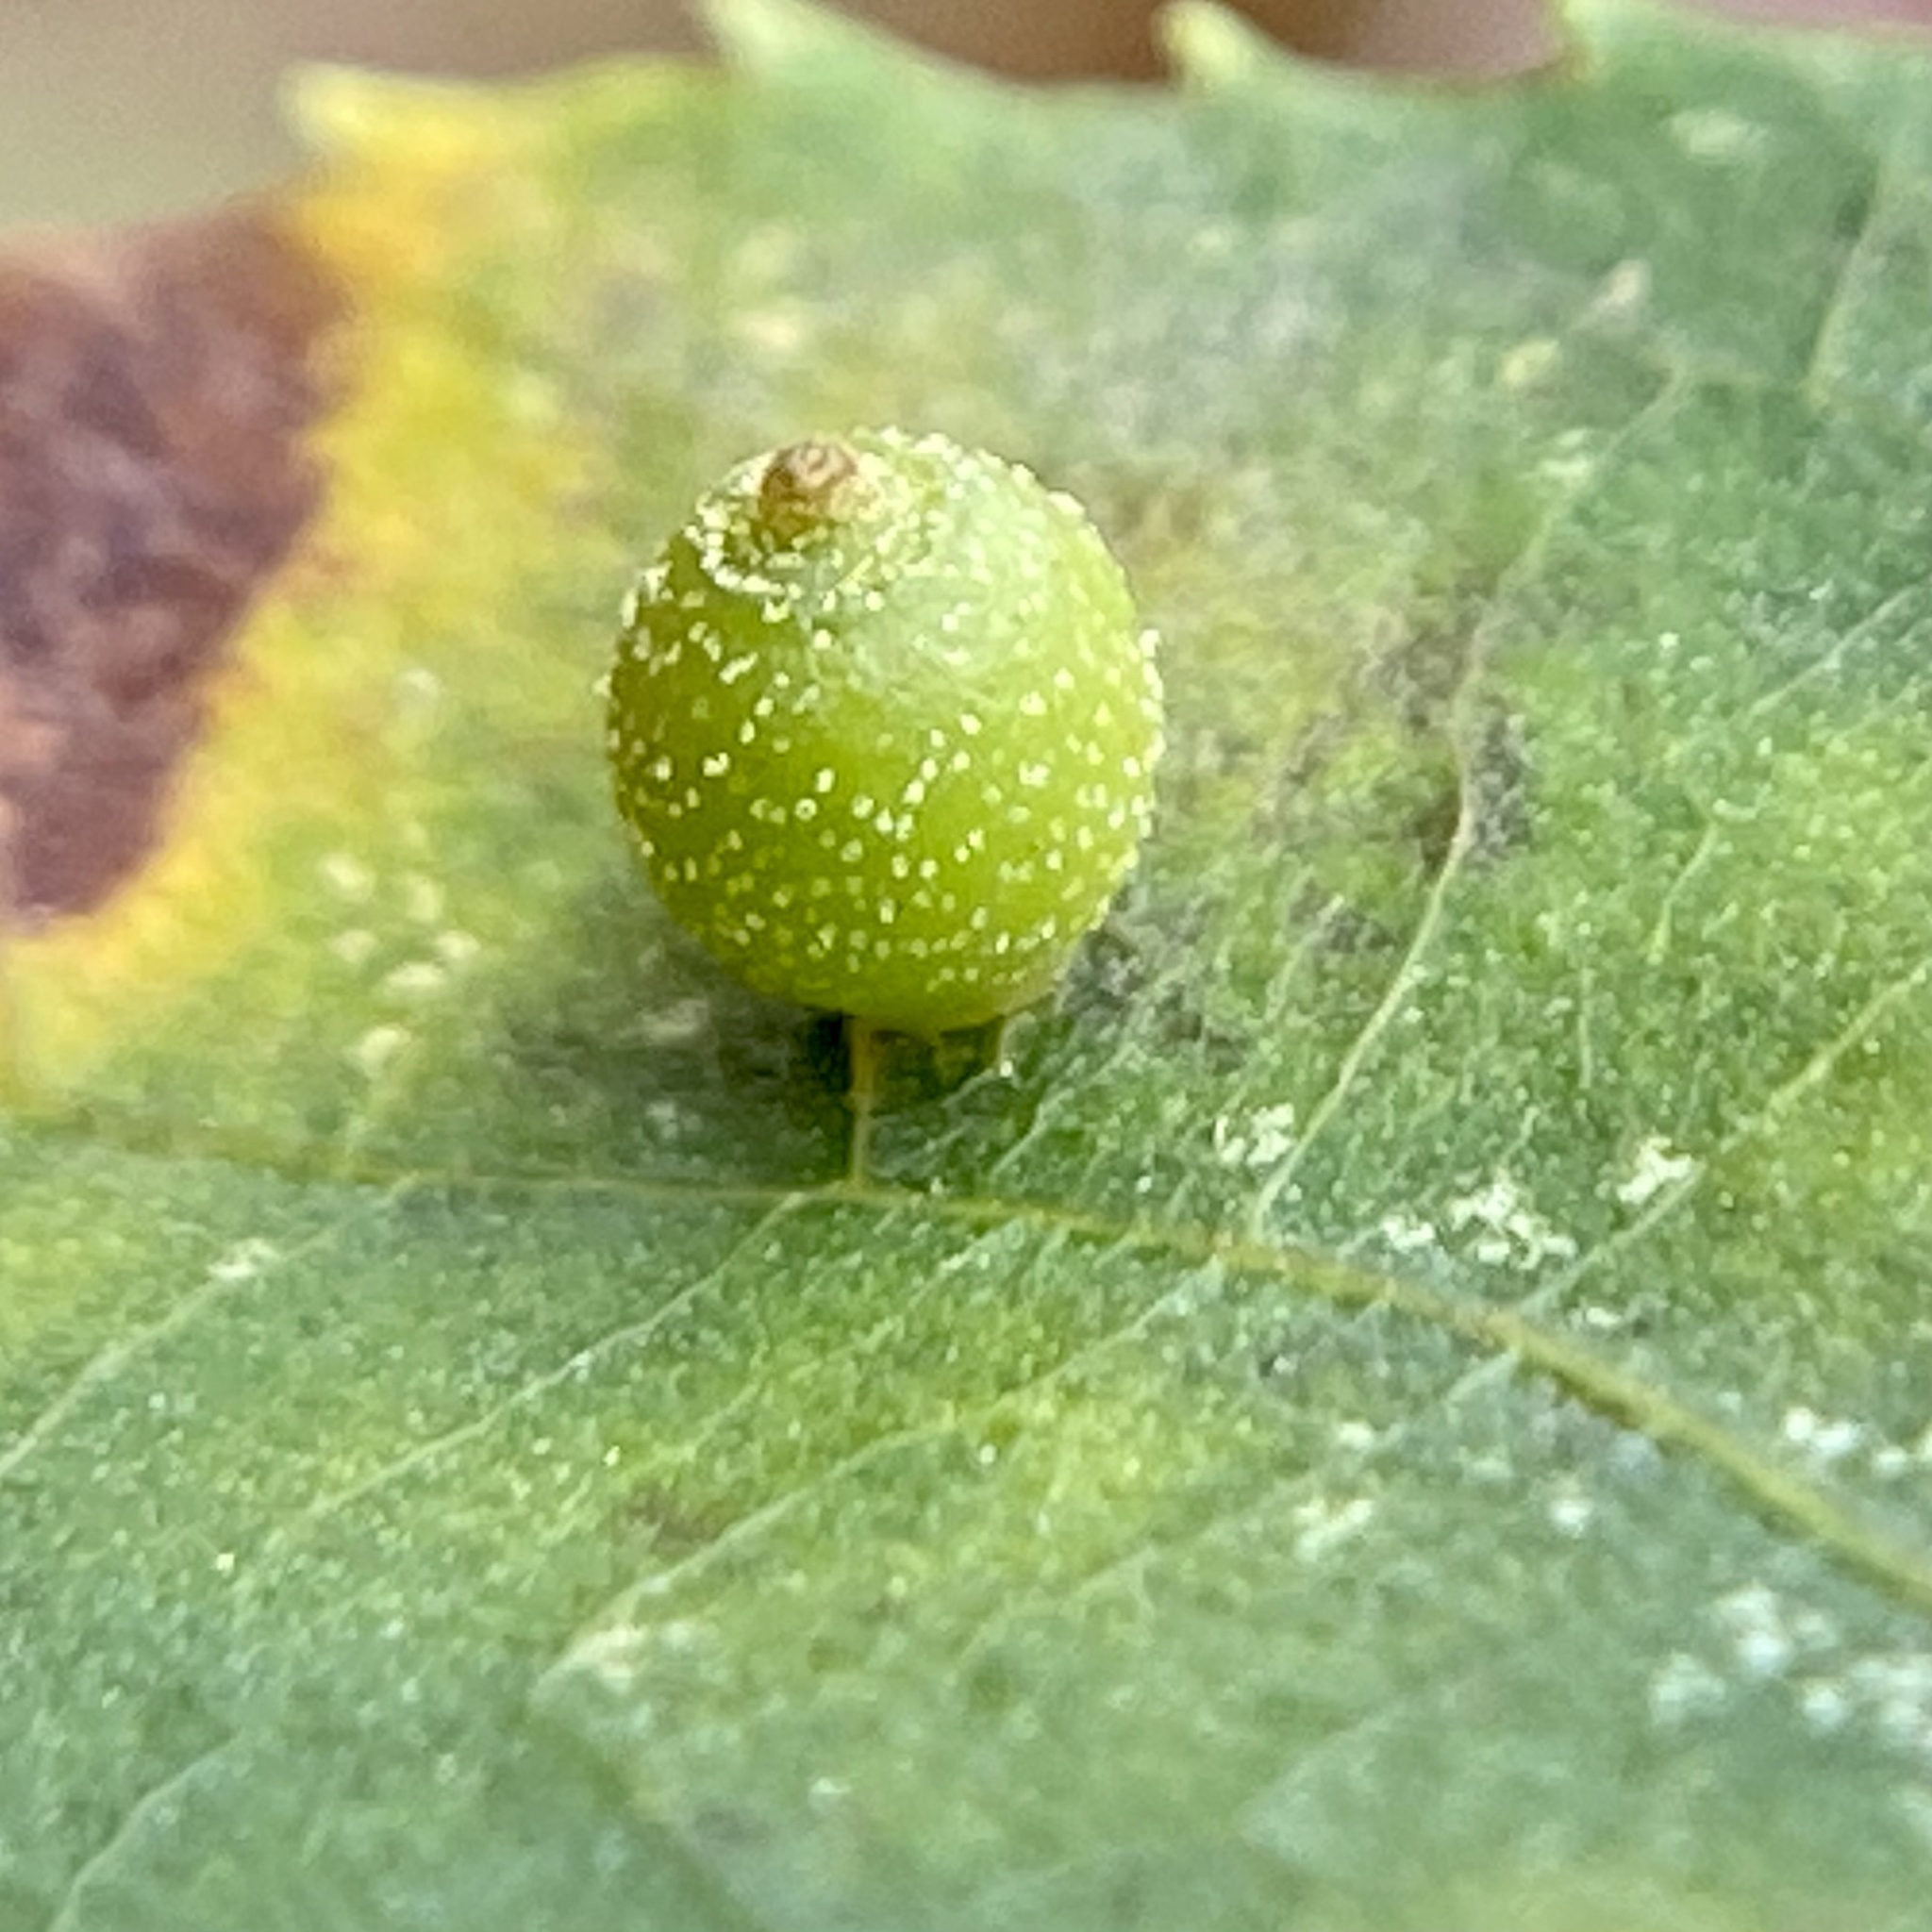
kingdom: Animalia
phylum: Arthropoda
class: Insecta
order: Diptera
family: Cecidomyiidae
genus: Caryomyia
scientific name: Caryomyia viscidolium
